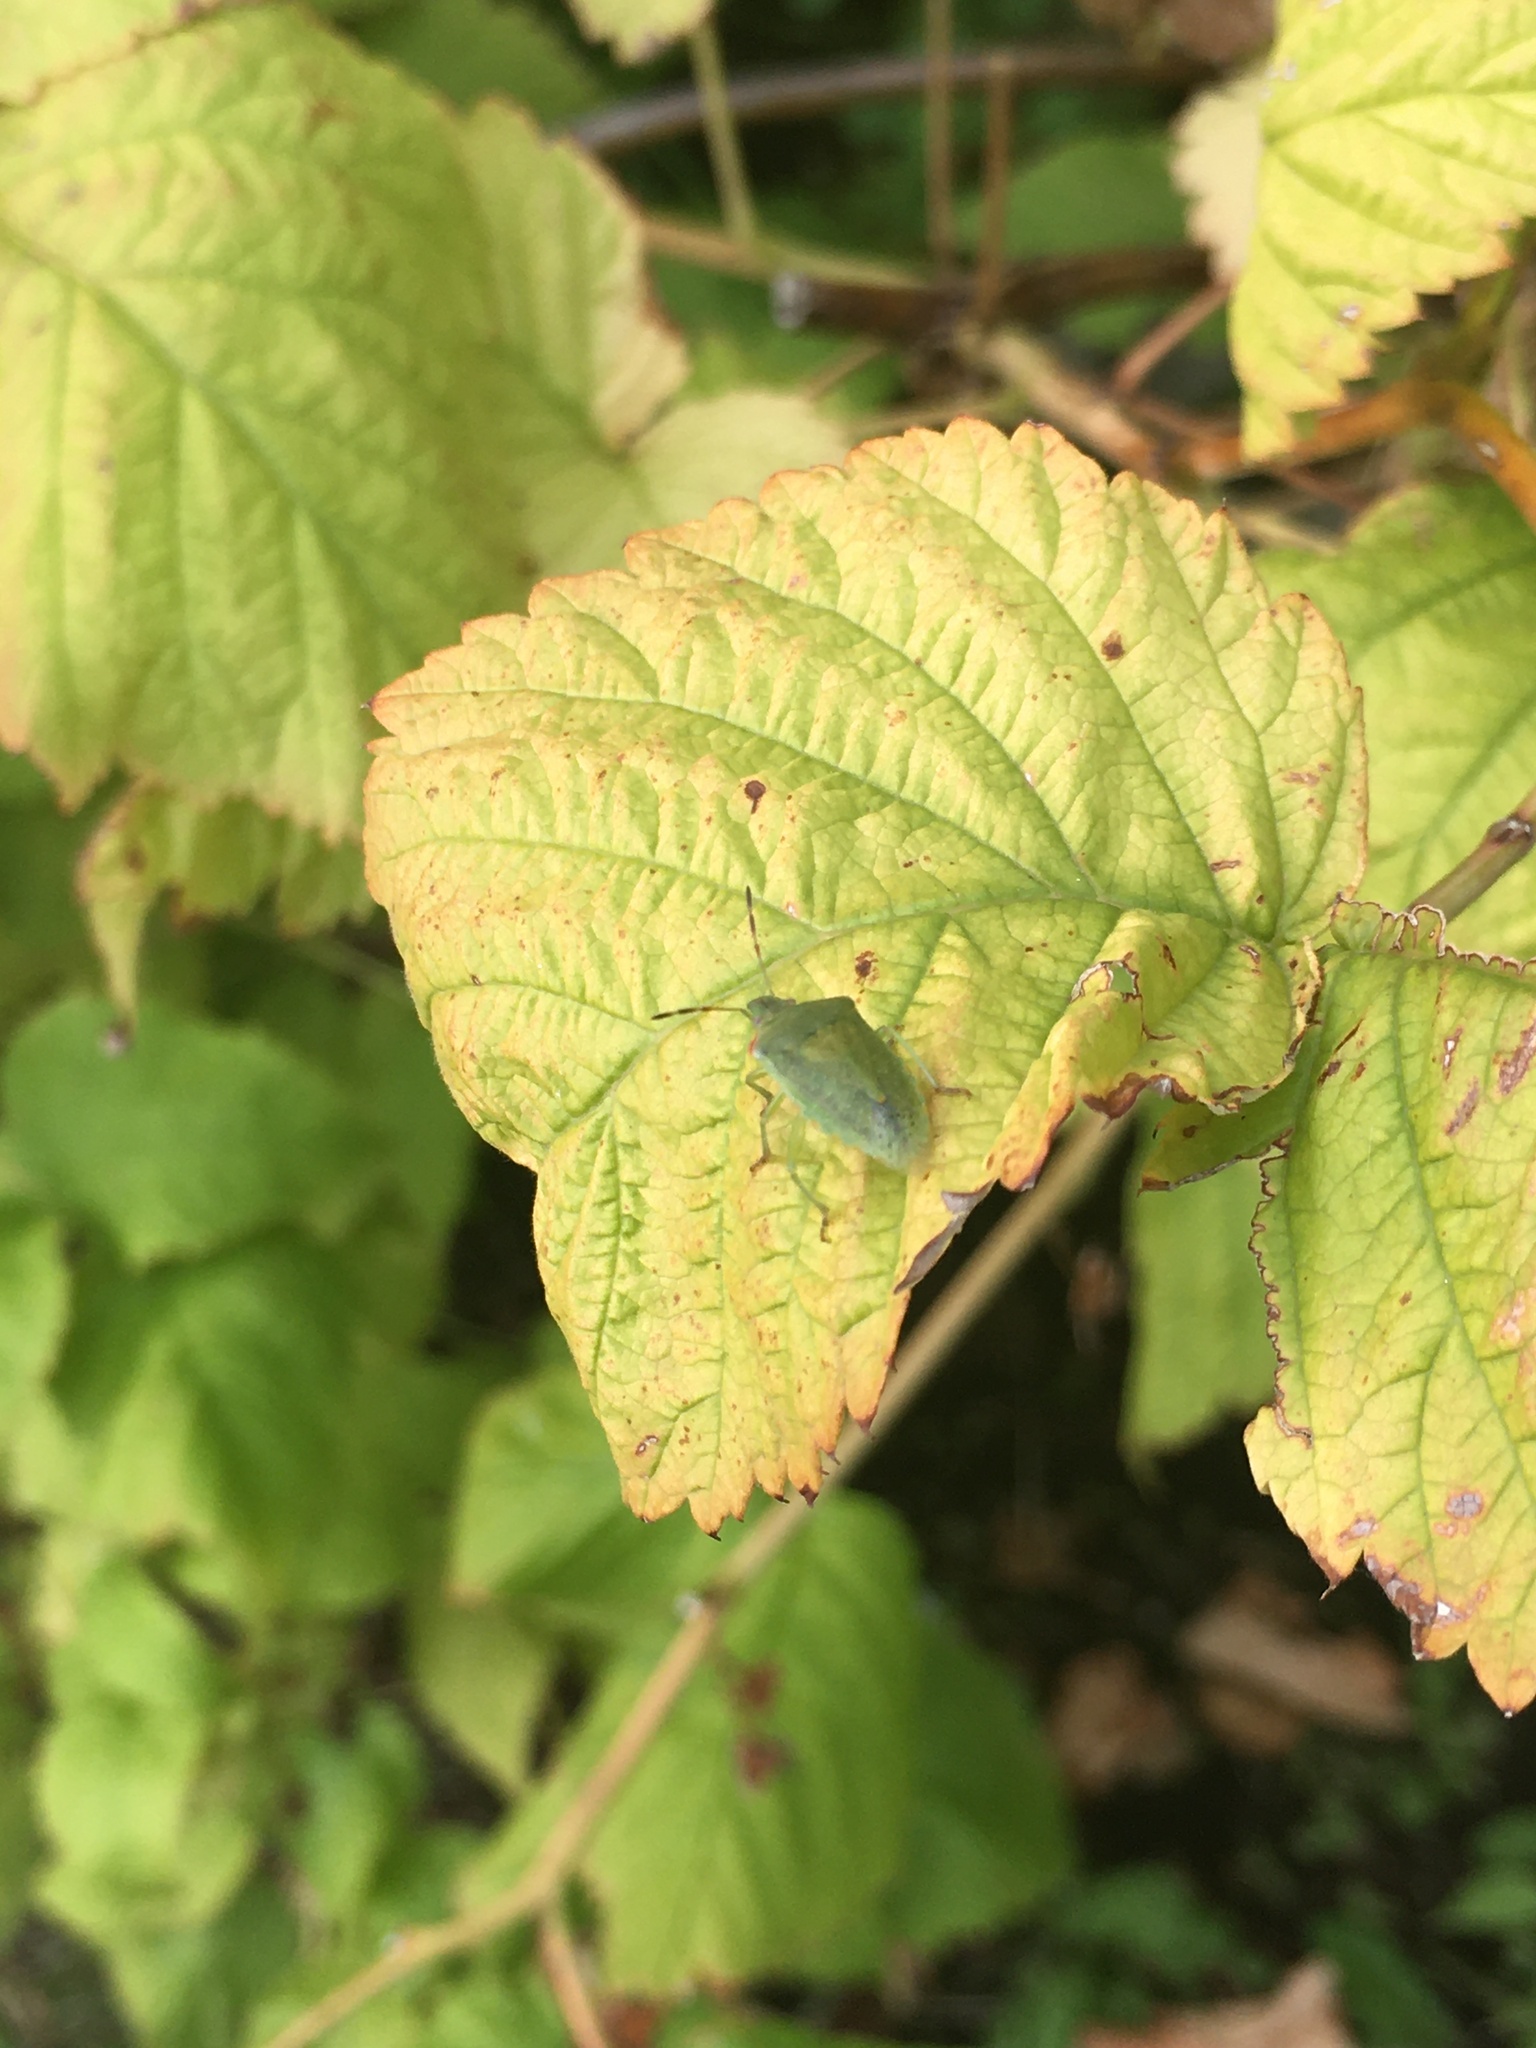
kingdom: Animalia
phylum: Arthropoda
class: Insecta
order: Hemiptera
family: Pentatomidae
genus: Thyanta
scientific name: Thyanta pallidovirens
